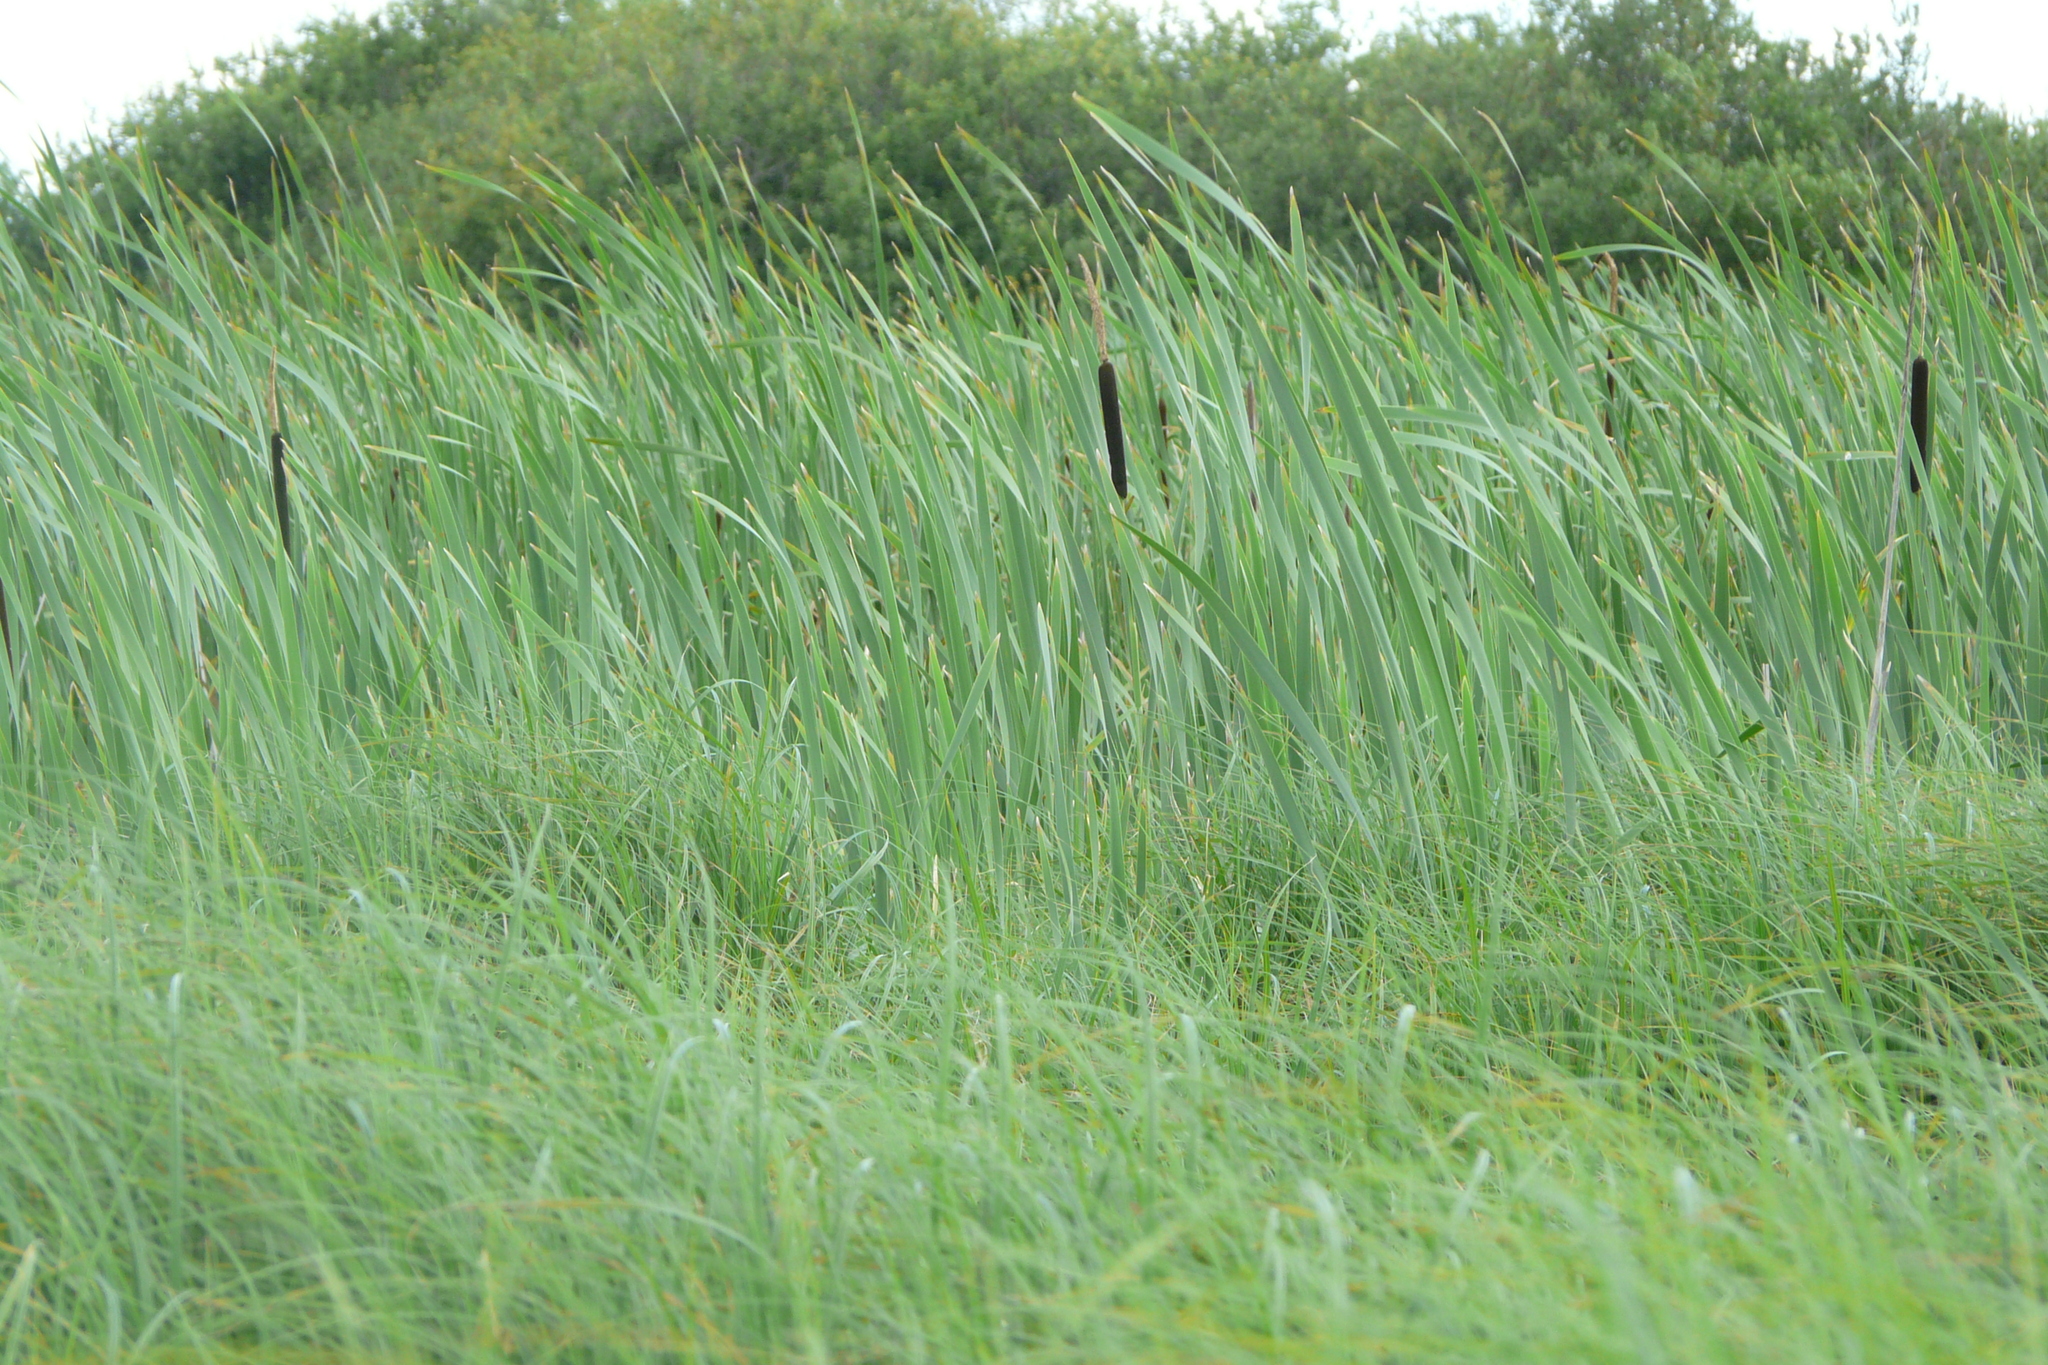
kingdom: Plantae
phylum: Tracheophyta
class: Liliopsida
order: Poales
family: Typhaceae
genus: Typha
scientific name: Typha latifolia
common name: Broadleaf cattail
